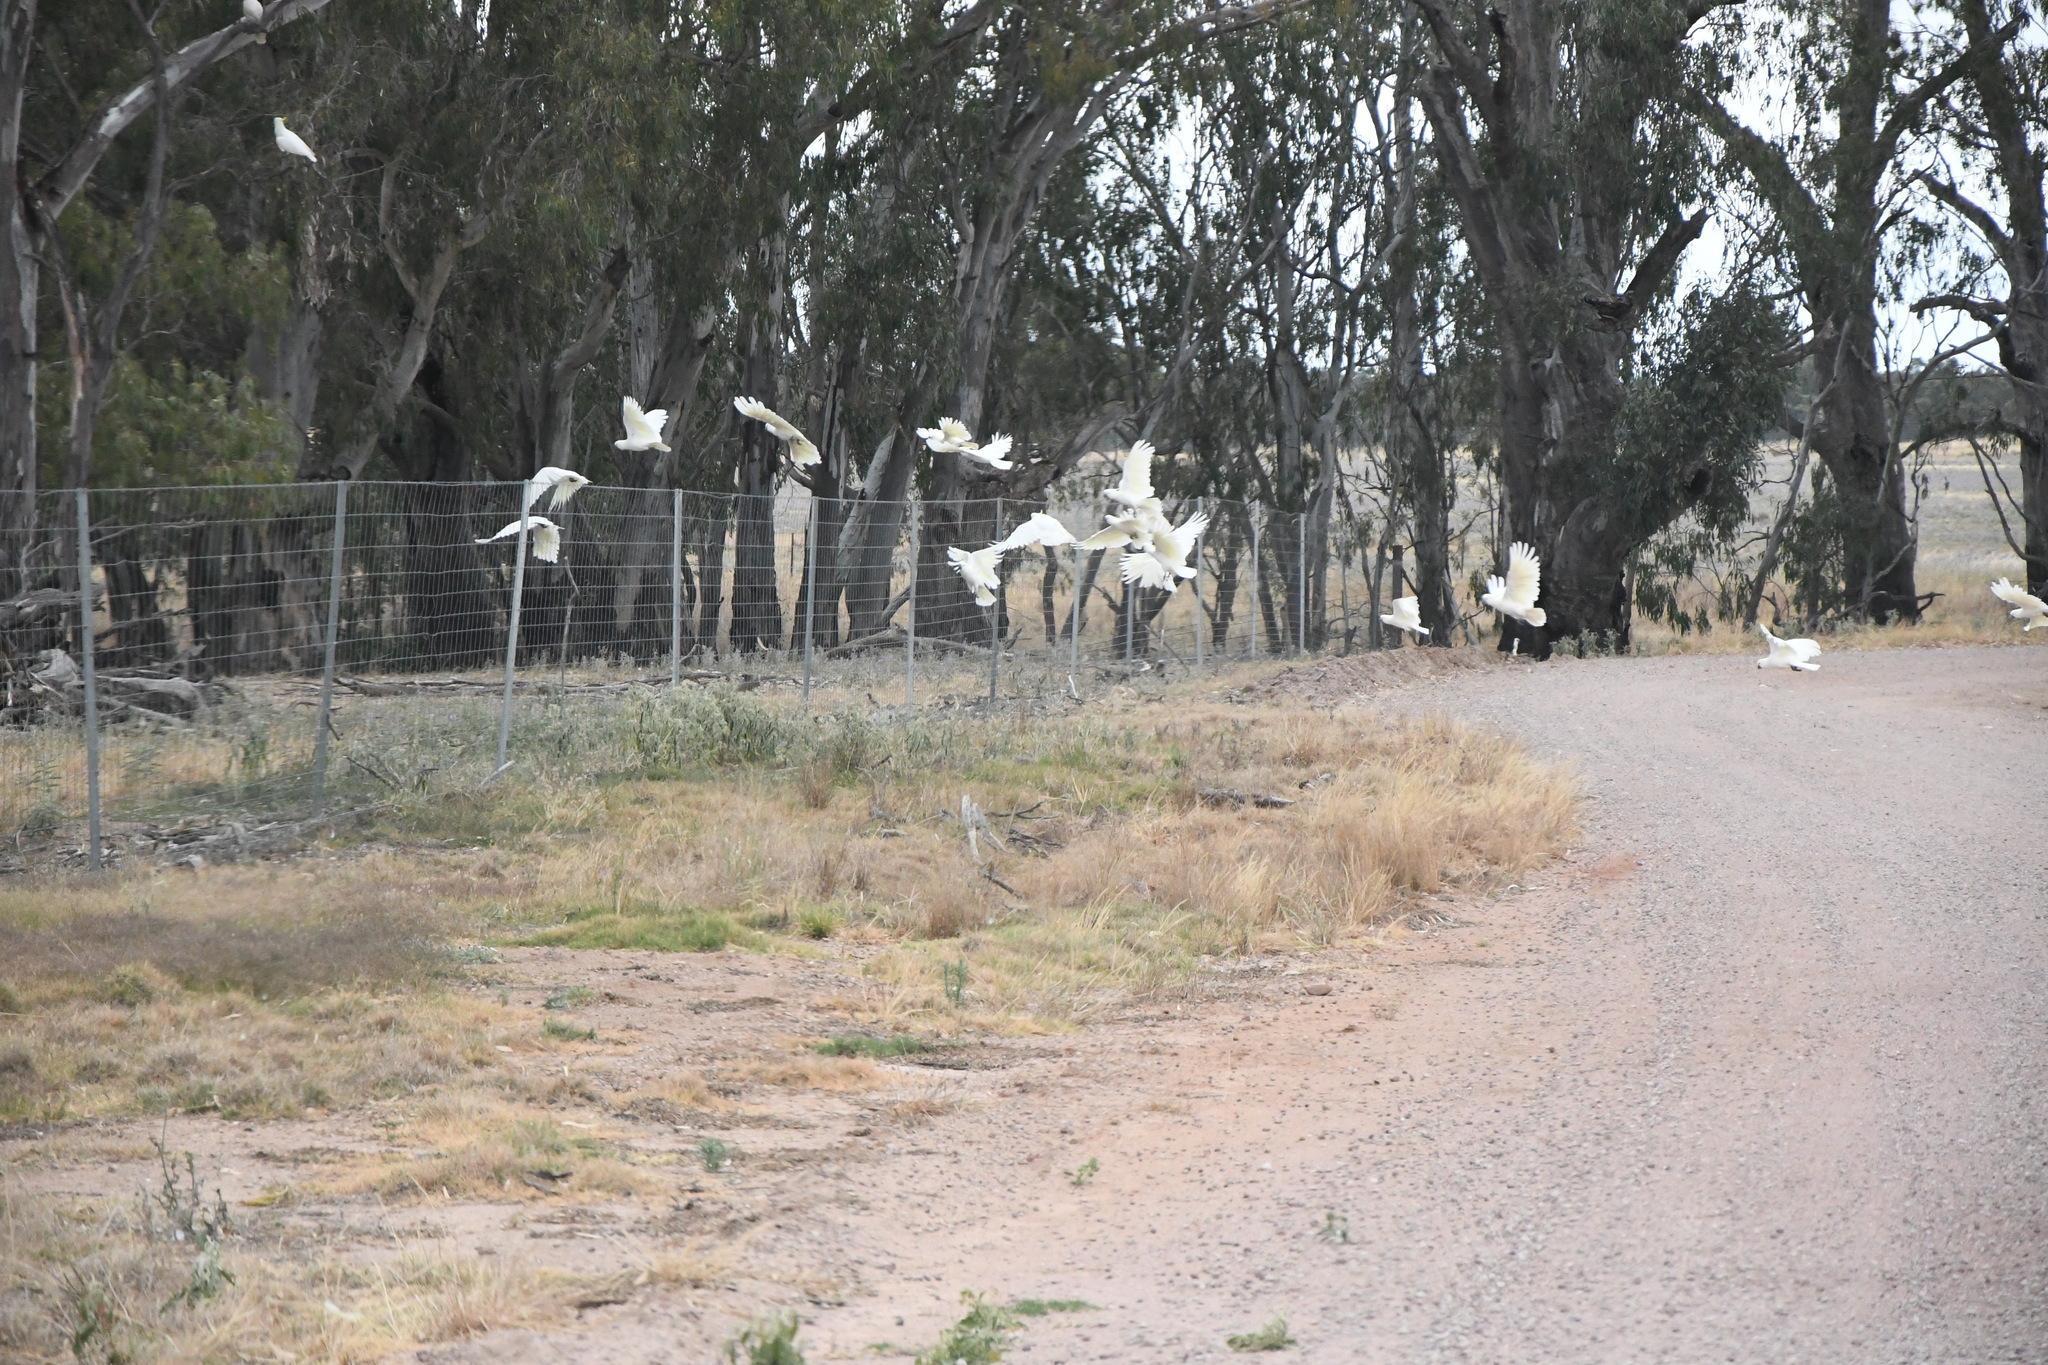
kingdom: Animalia
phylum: Chordata
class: Aves
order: Psittaciformes
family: Psittacidae
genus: Cacatua
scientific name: Cacatua galerita
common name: Sulphur-crested cockatoo
